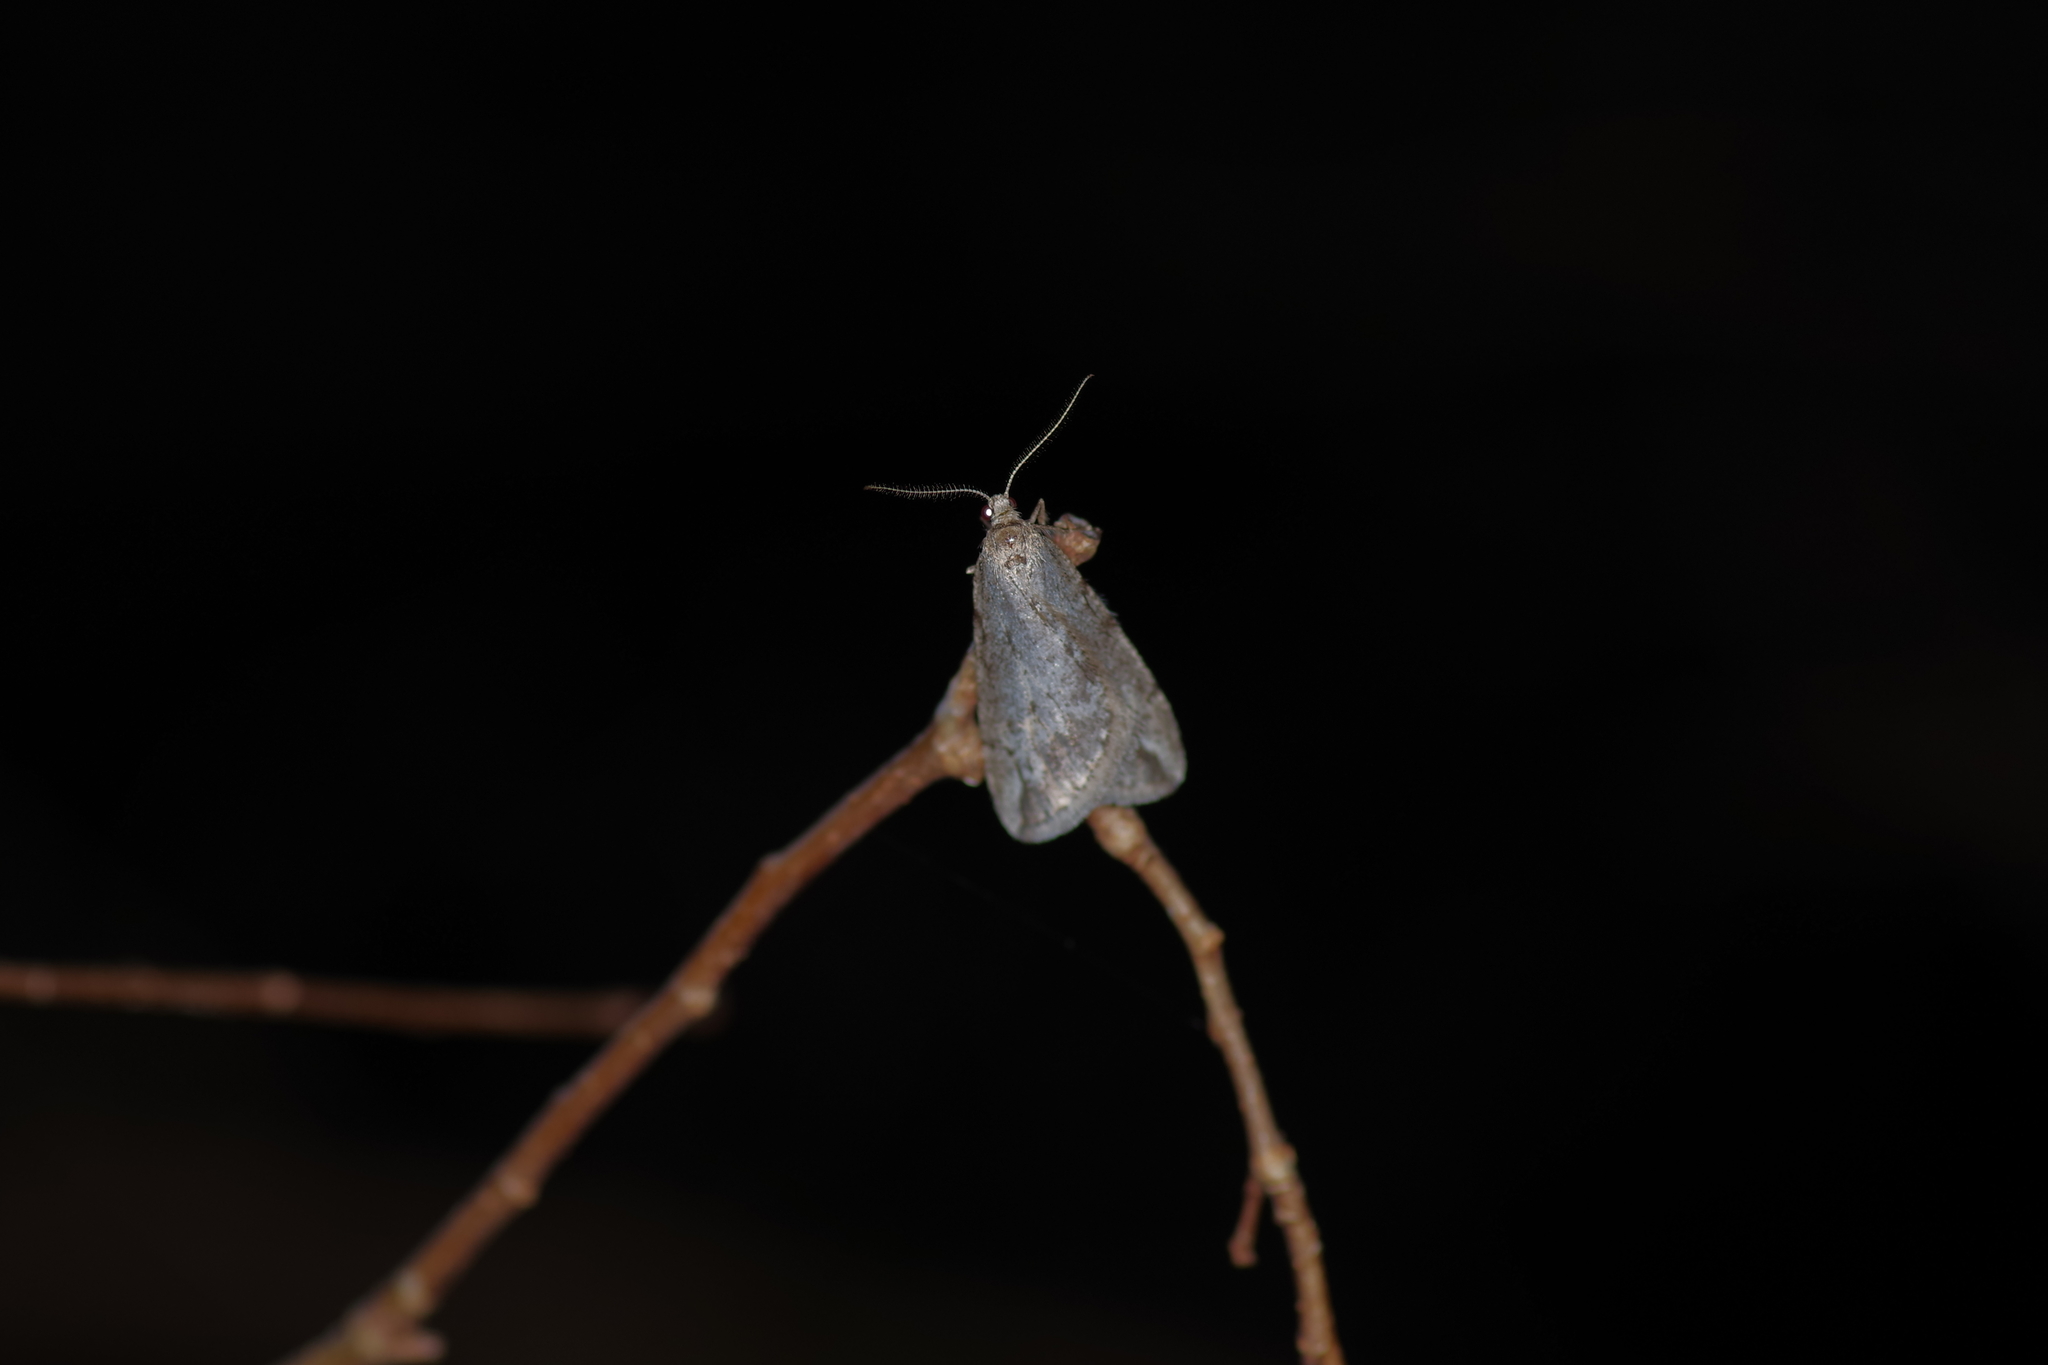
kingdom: Animalia
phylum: Arthropoda
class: Insecta
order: Lepidoptera
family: Geometridae
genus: Paleacrita
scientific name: Paleacrita vernata
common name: Spring cankerworm
